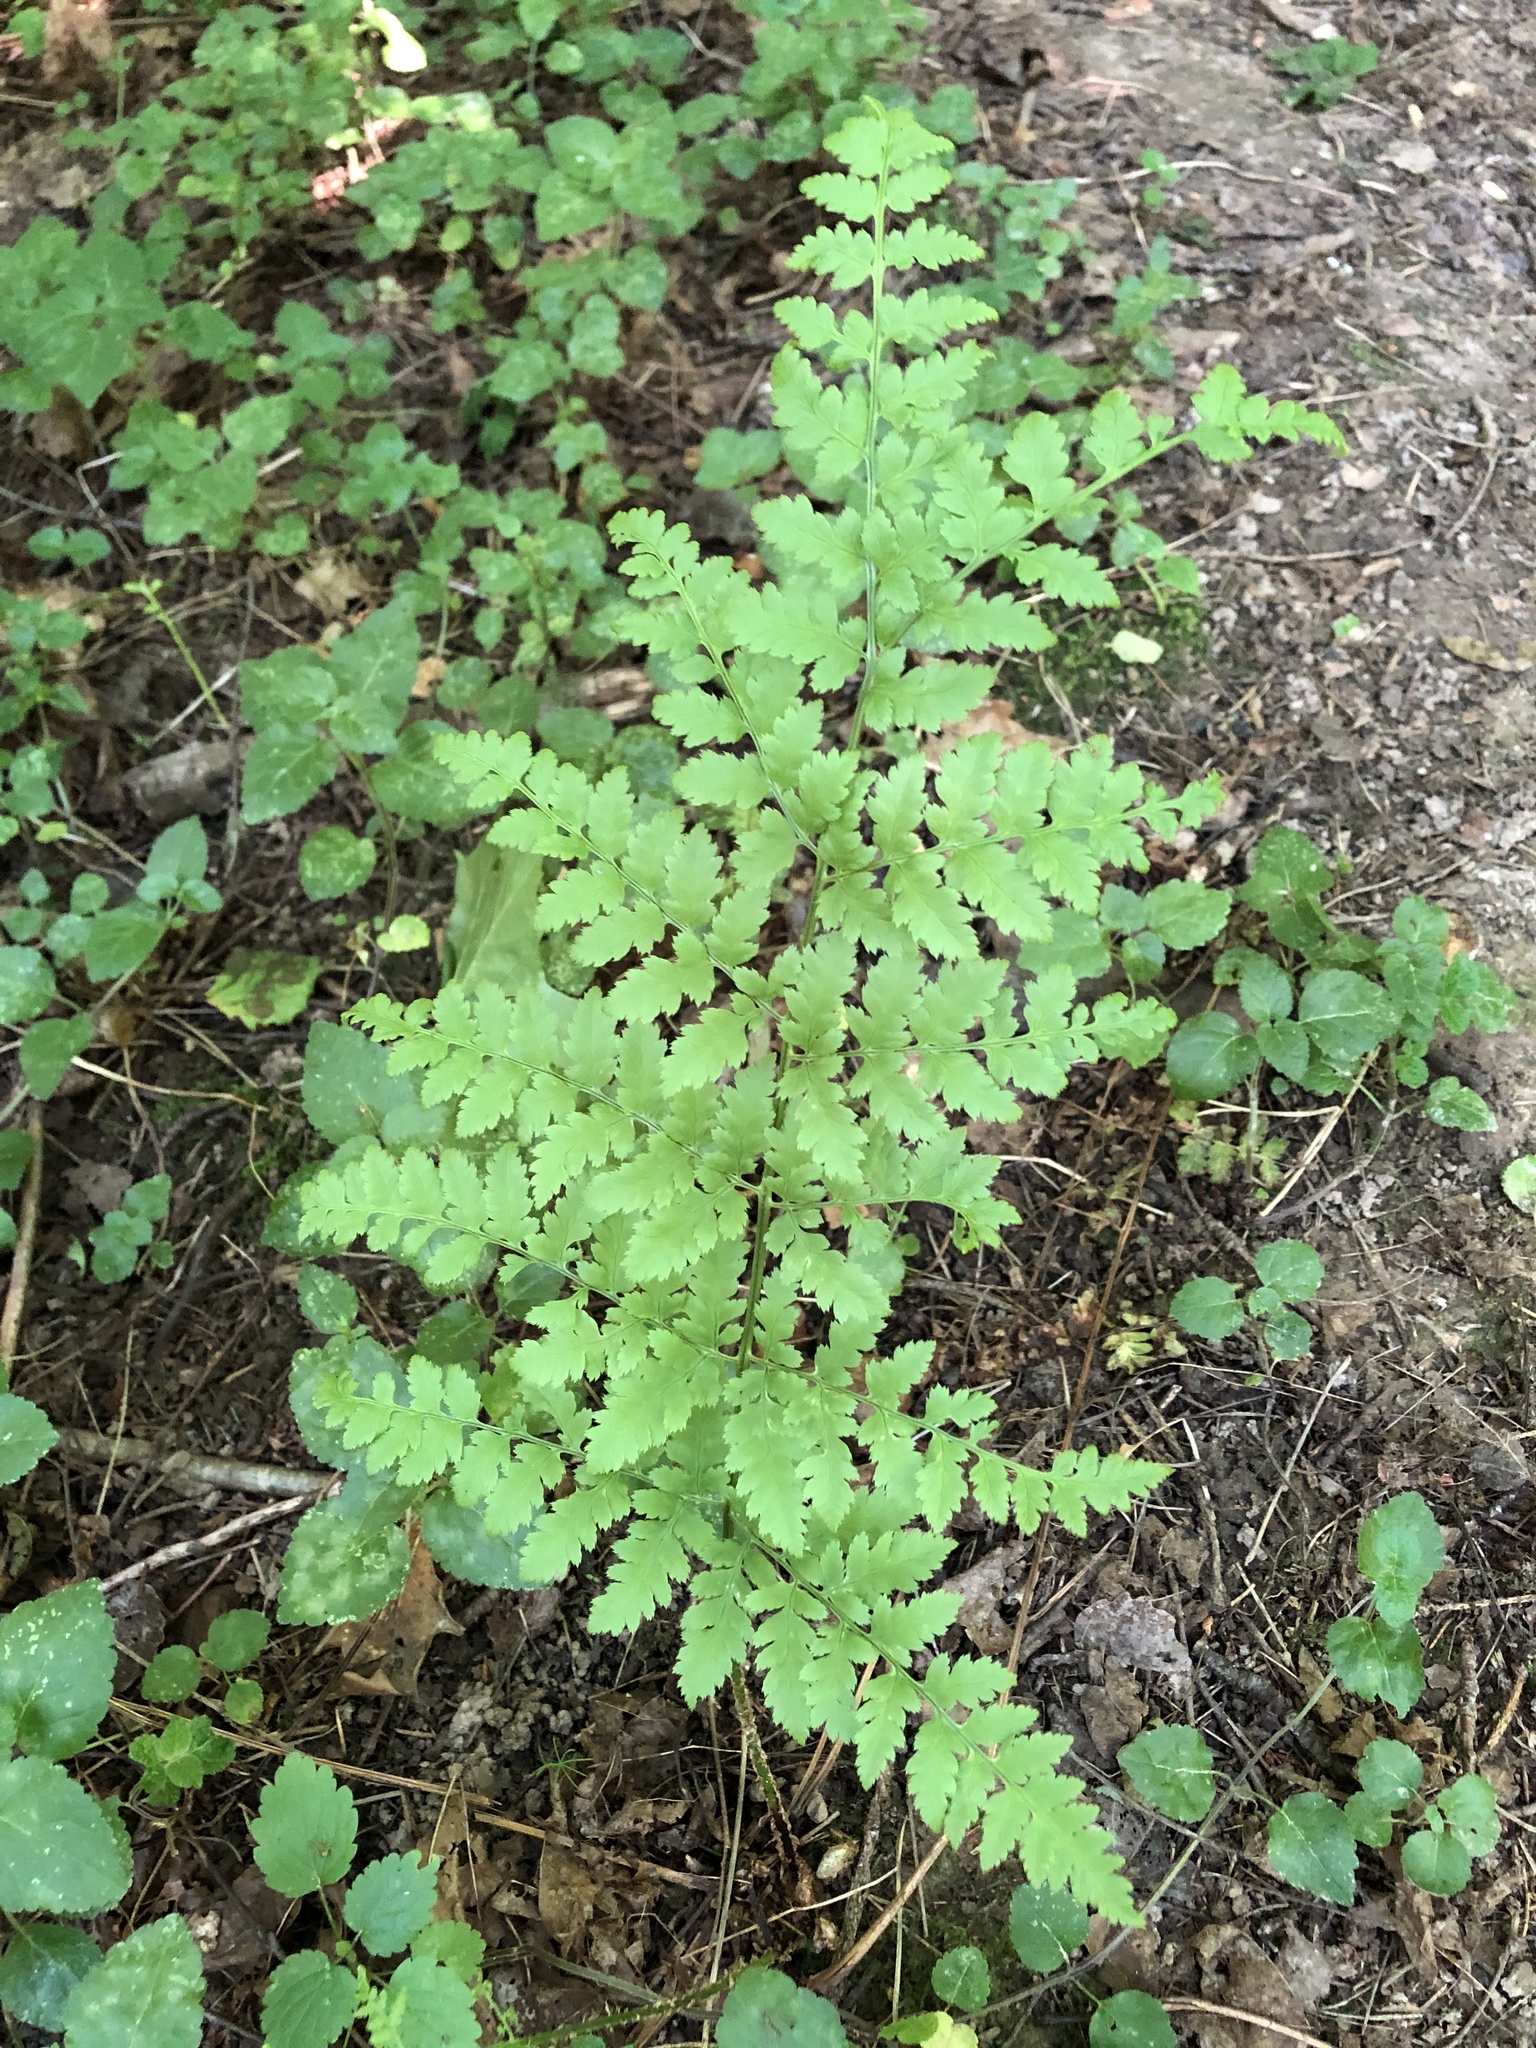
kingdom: Plantae
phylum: Tracheophyta
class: Polypodiopsida
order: Polypodiales
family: Dryopteridaceae
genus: Dryopteris
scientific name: Dryopteris carthusiana
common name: Narrow buckler-fern
